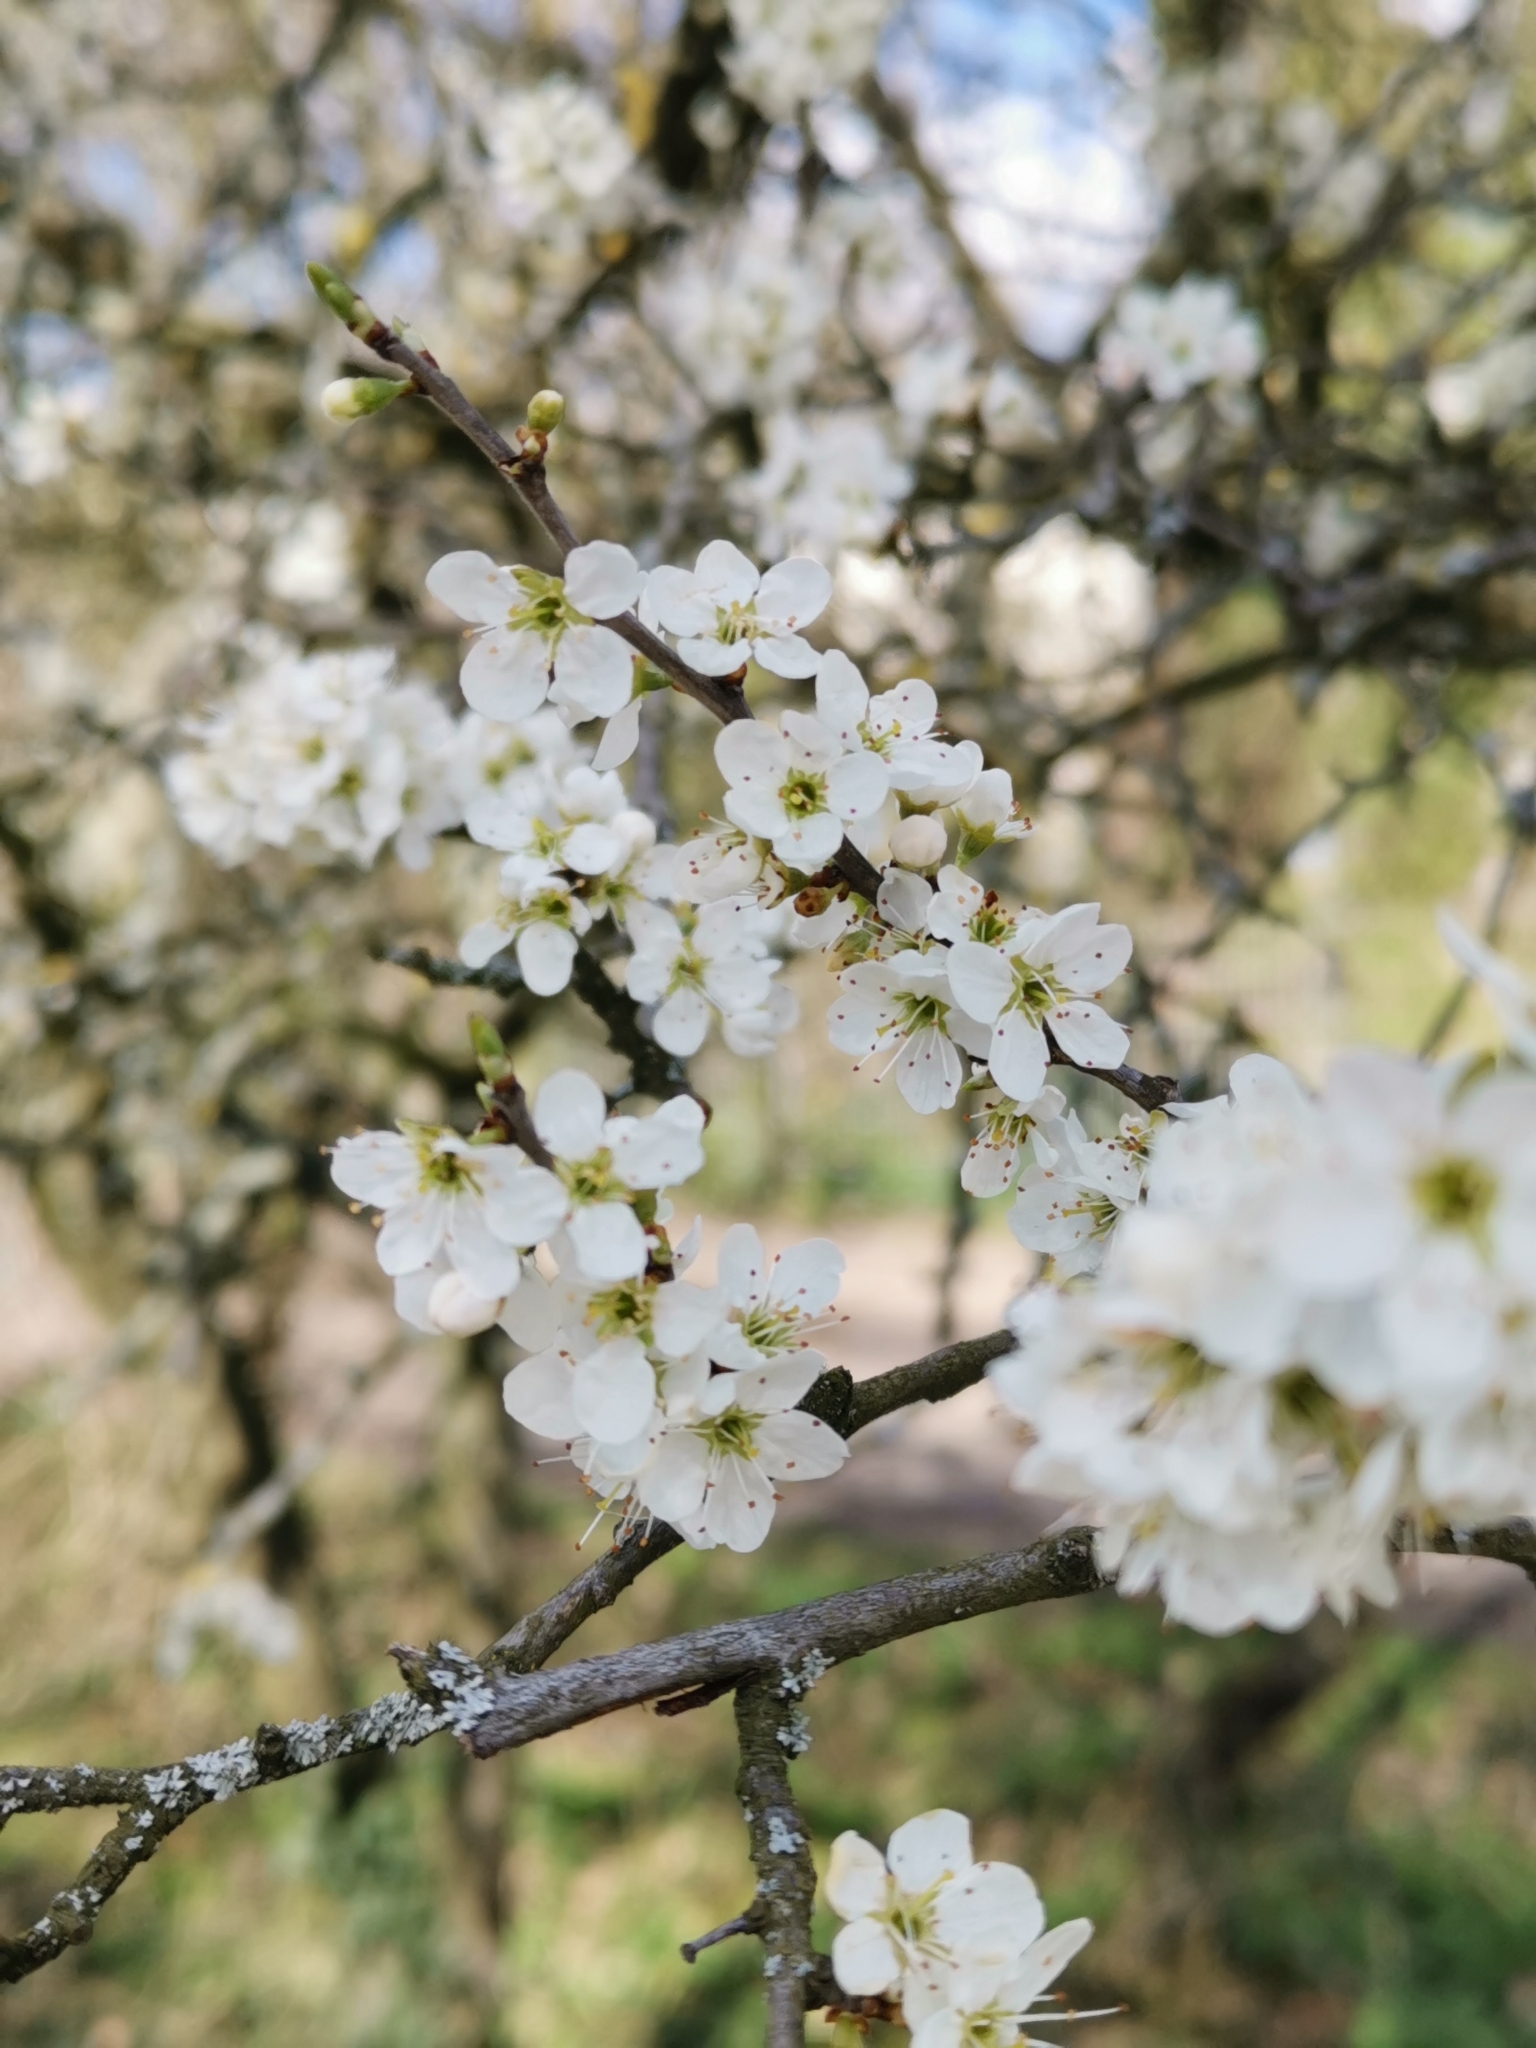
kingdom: Plantae
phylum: Tracheophyta
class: Magnoliopsida
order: Rosales
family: Rosaceae
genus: Prunus
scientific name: Prunus spinosa
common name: Blackthorn
